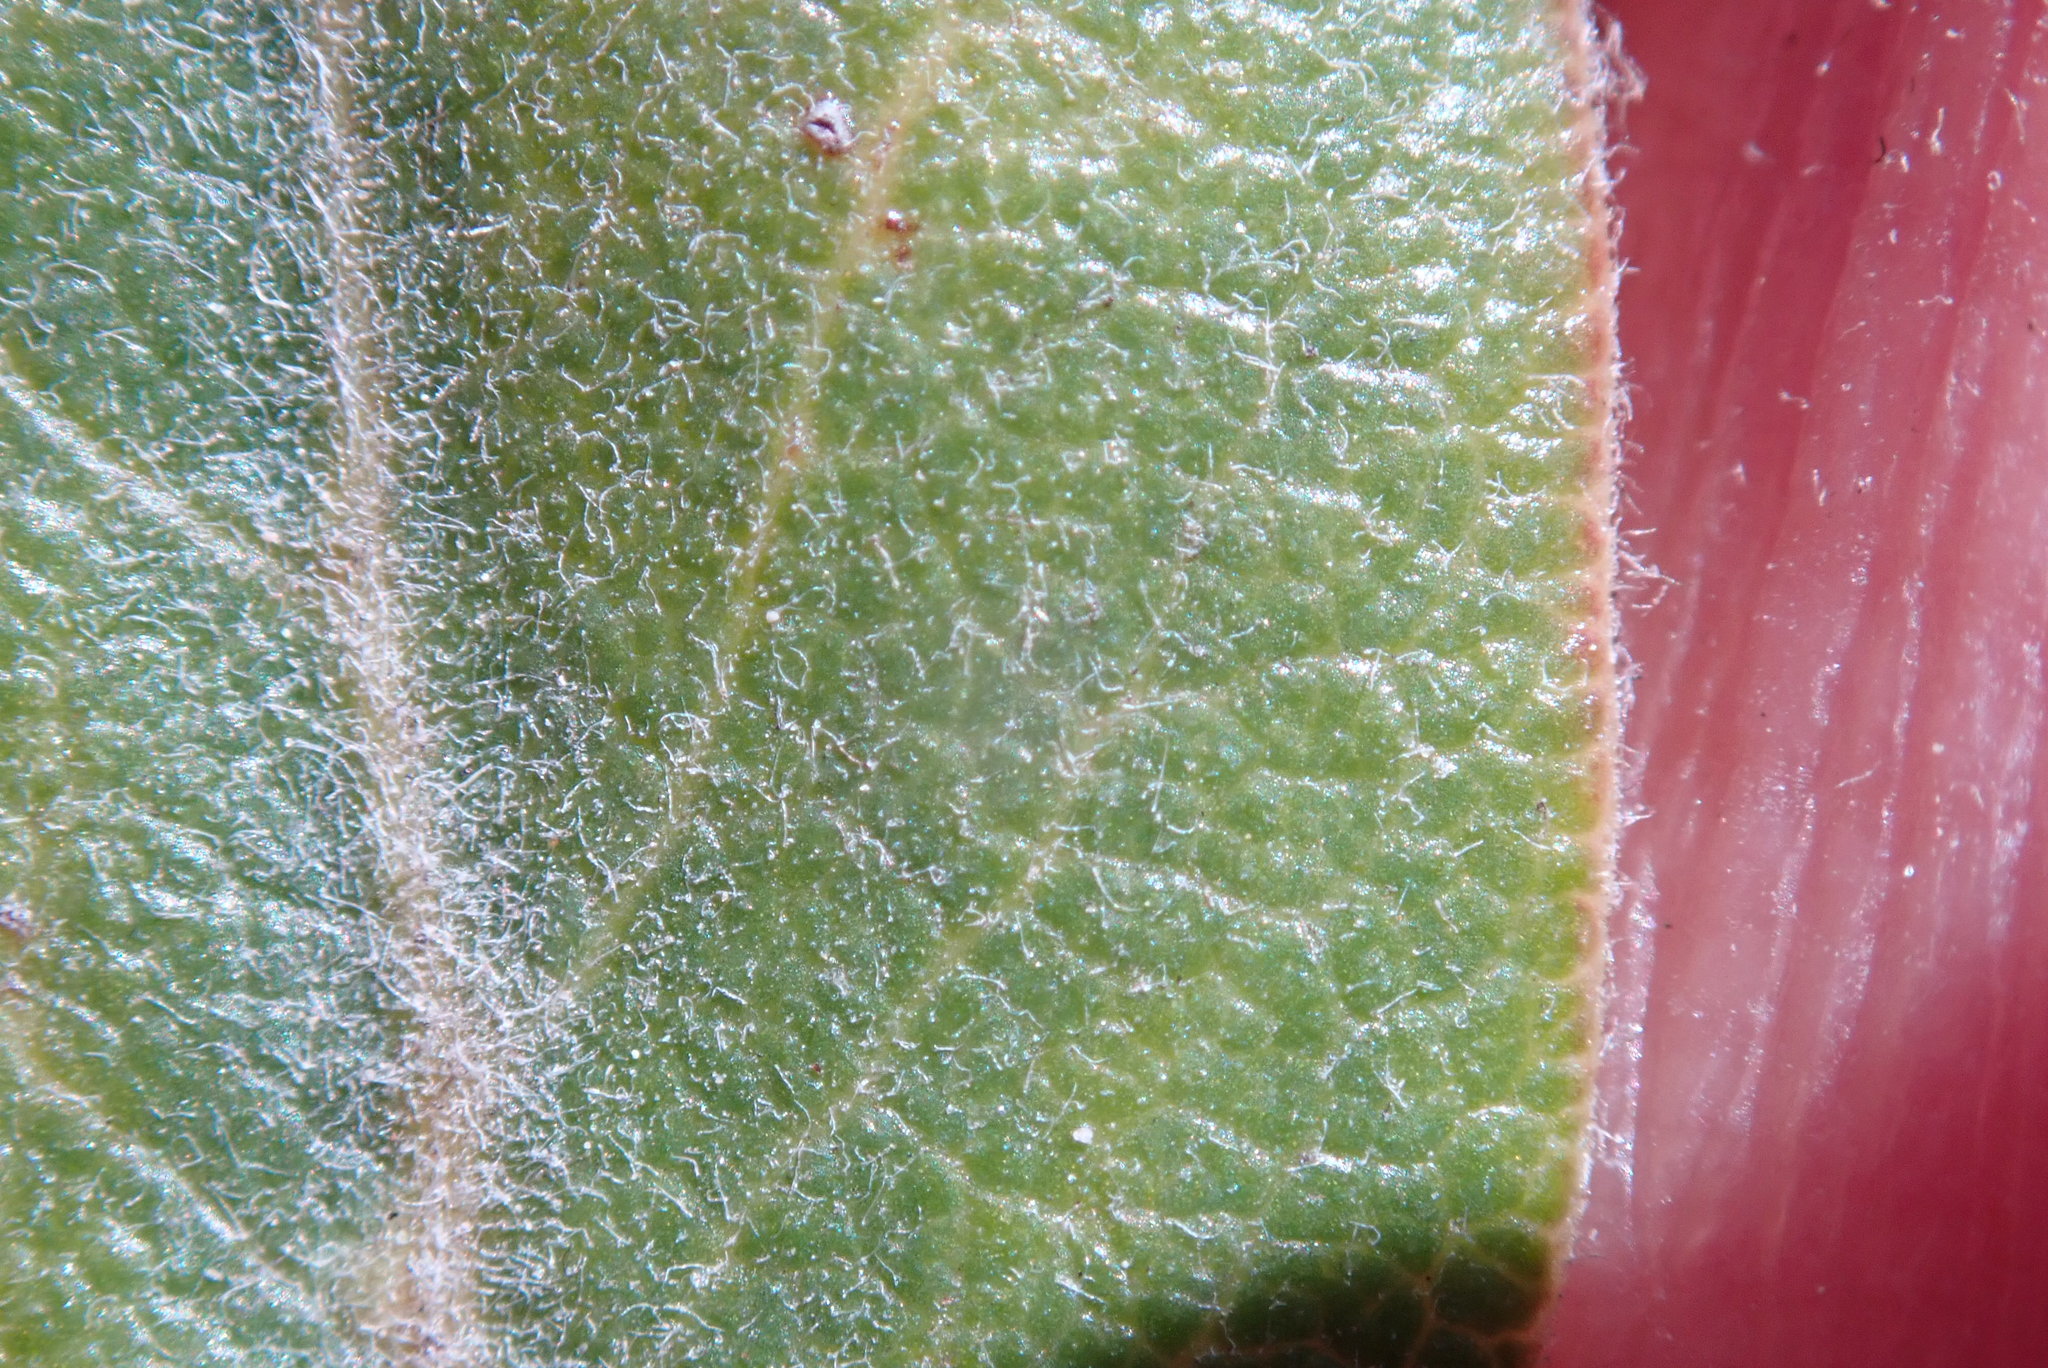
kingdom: Plantae
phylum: Tracheophyta
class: Magnoliopsida
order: Ericales
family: Ericaceae
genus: Arctostaphylos
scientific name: Arctostaphylos tomentosa
